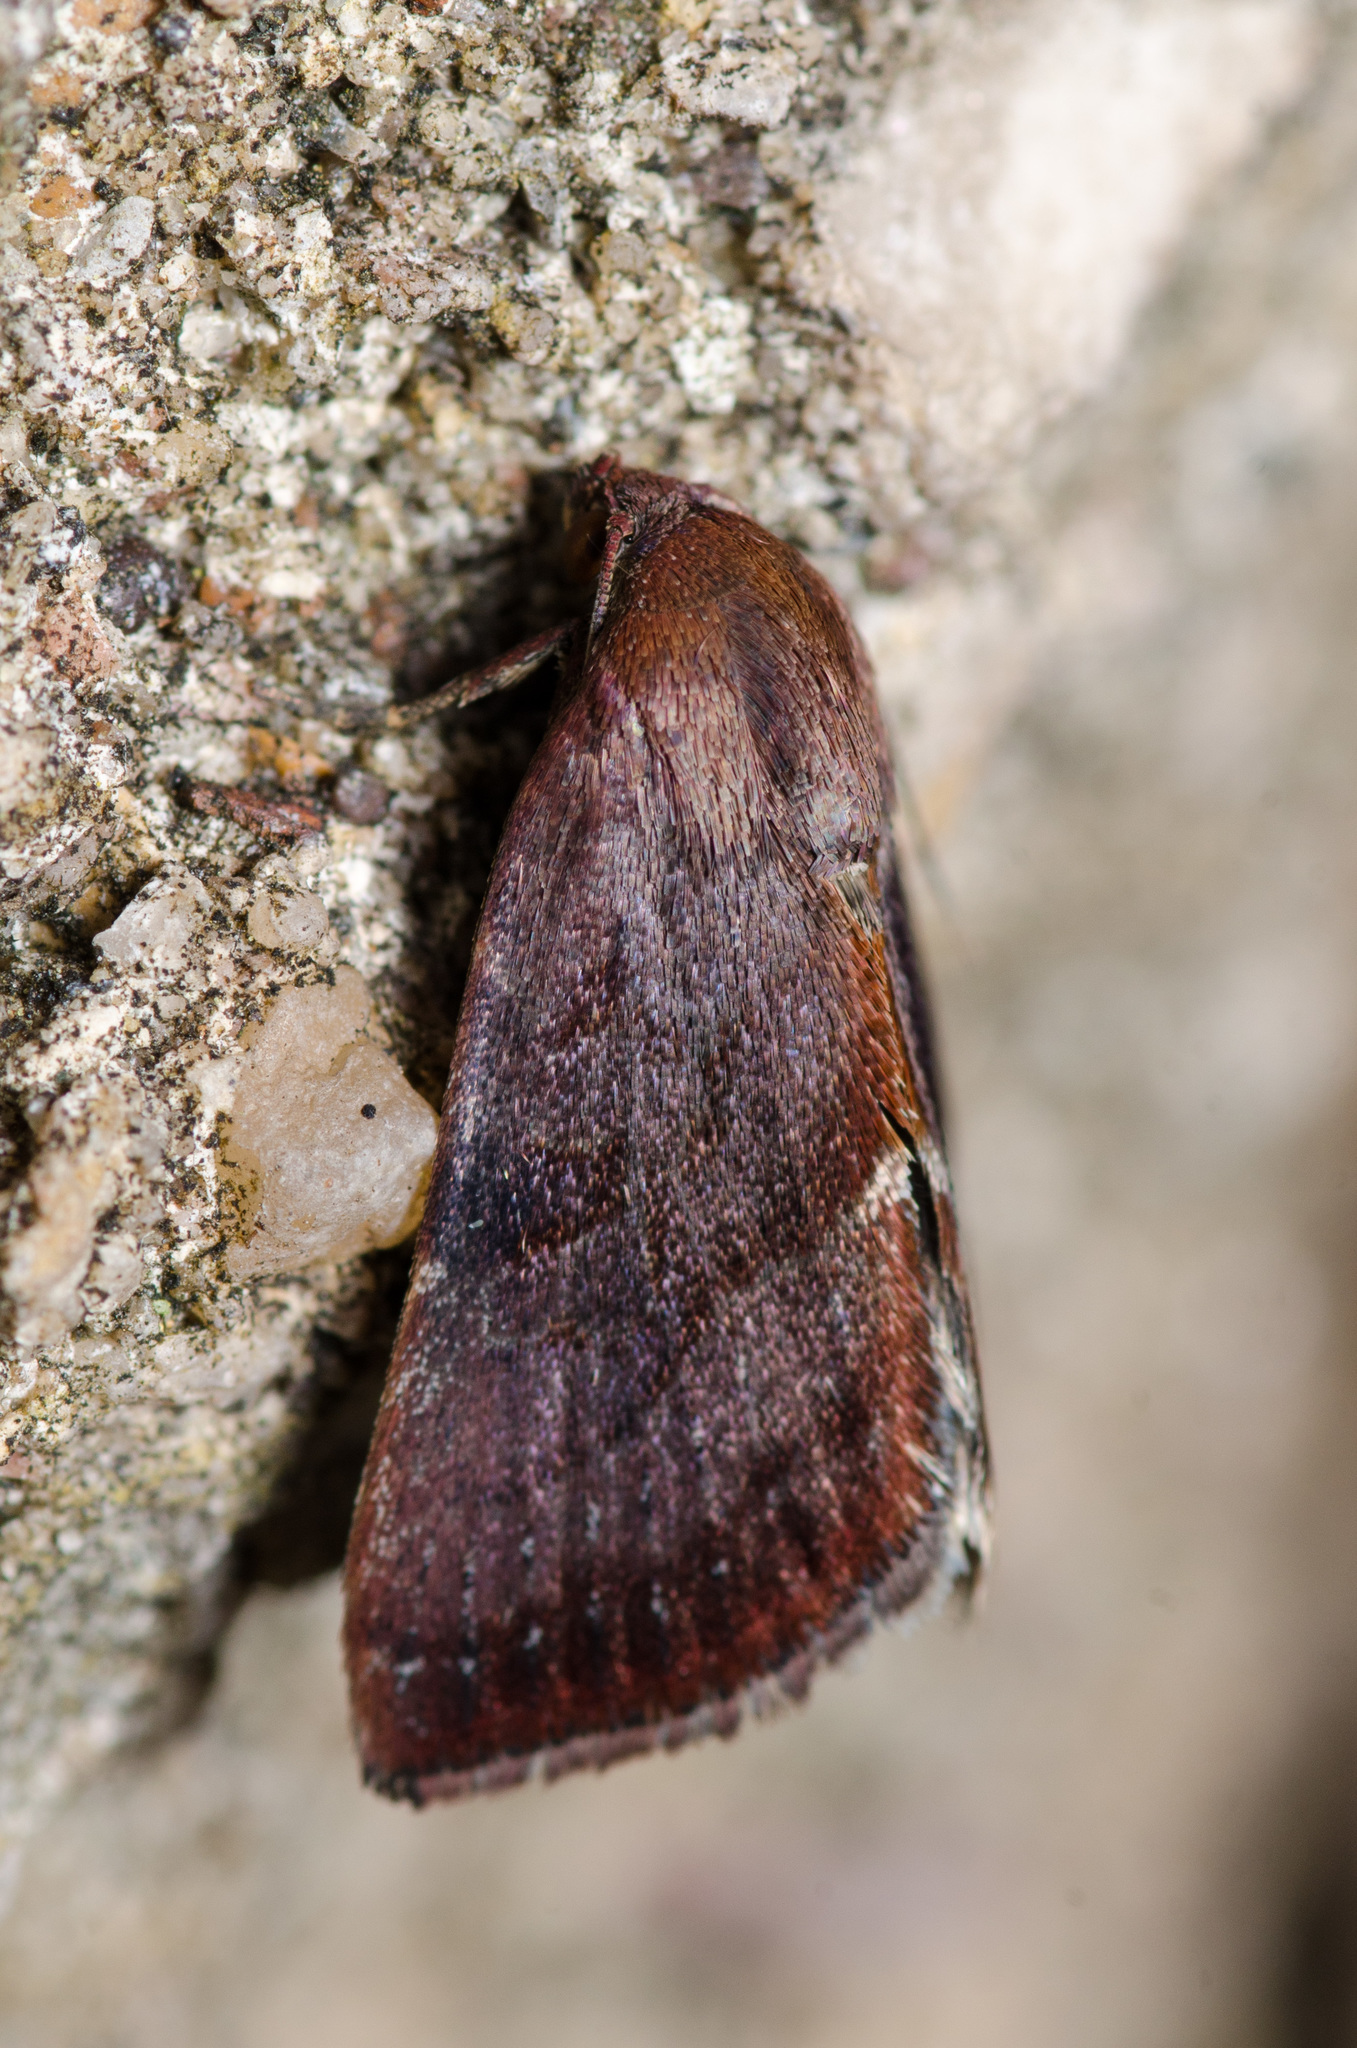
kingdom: Animalia
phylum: Arthropoda
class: Insecta
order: Lepidoptera
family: Noctuidae
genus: Galgula
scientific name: Galgula partita
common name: Wedgeling
